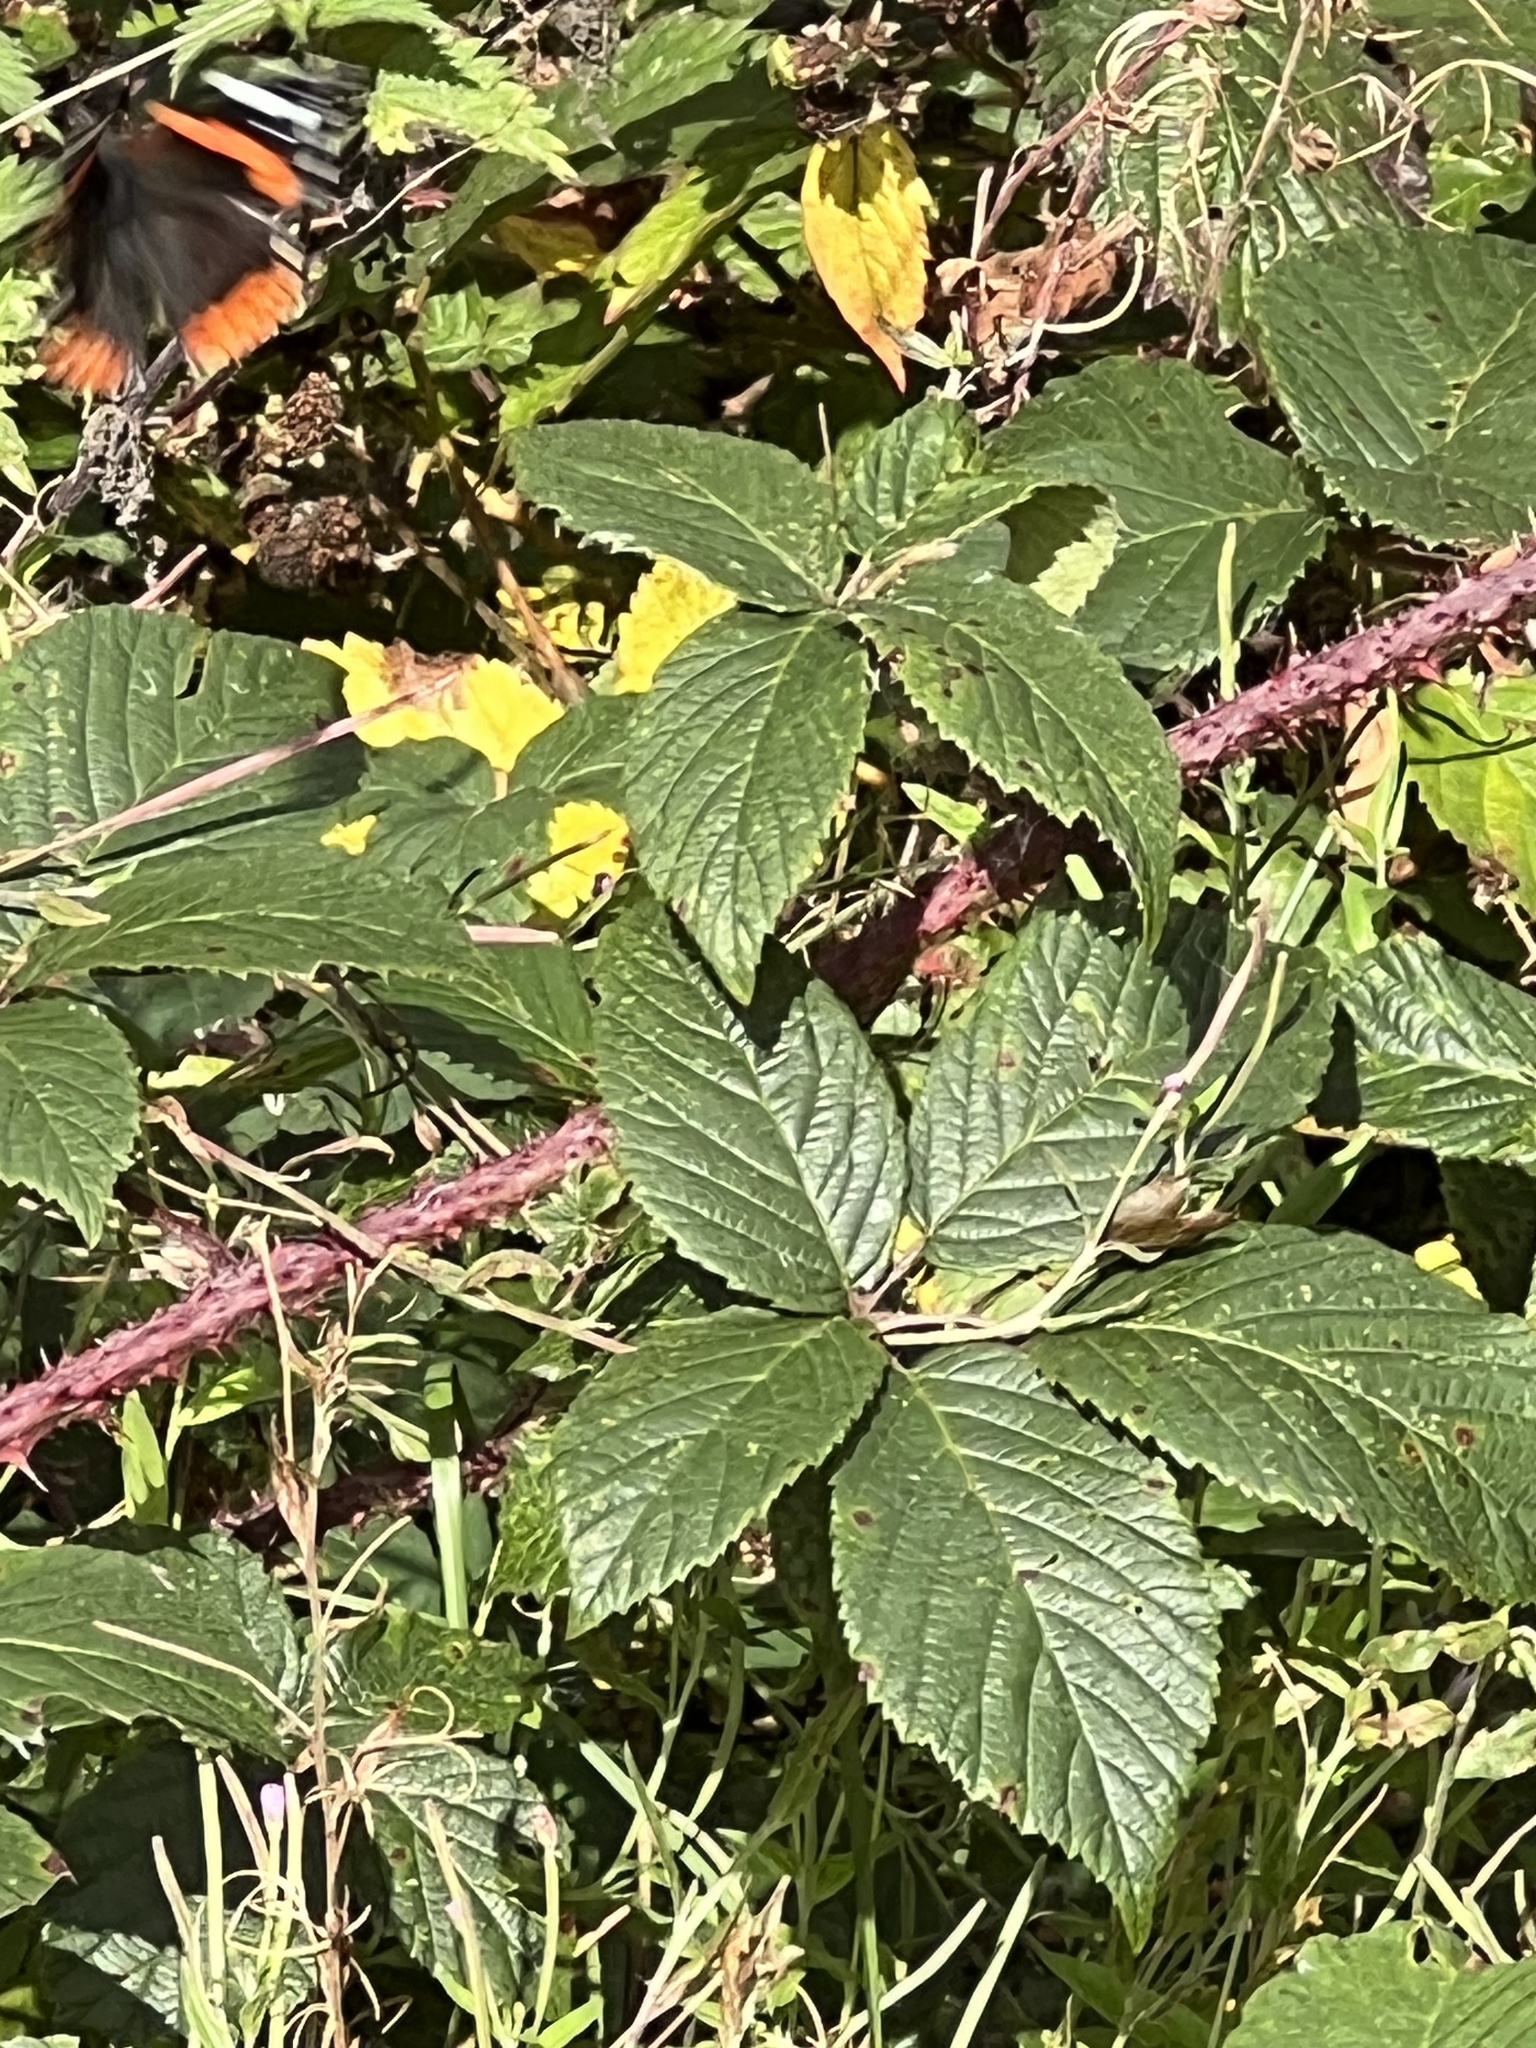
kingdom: Animalia
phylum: Arthropoda
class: Insecta
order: Lepidoptera
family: Nymphalidae
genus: Vanessa
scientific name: Vanessa atalanta
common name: Red admiral
